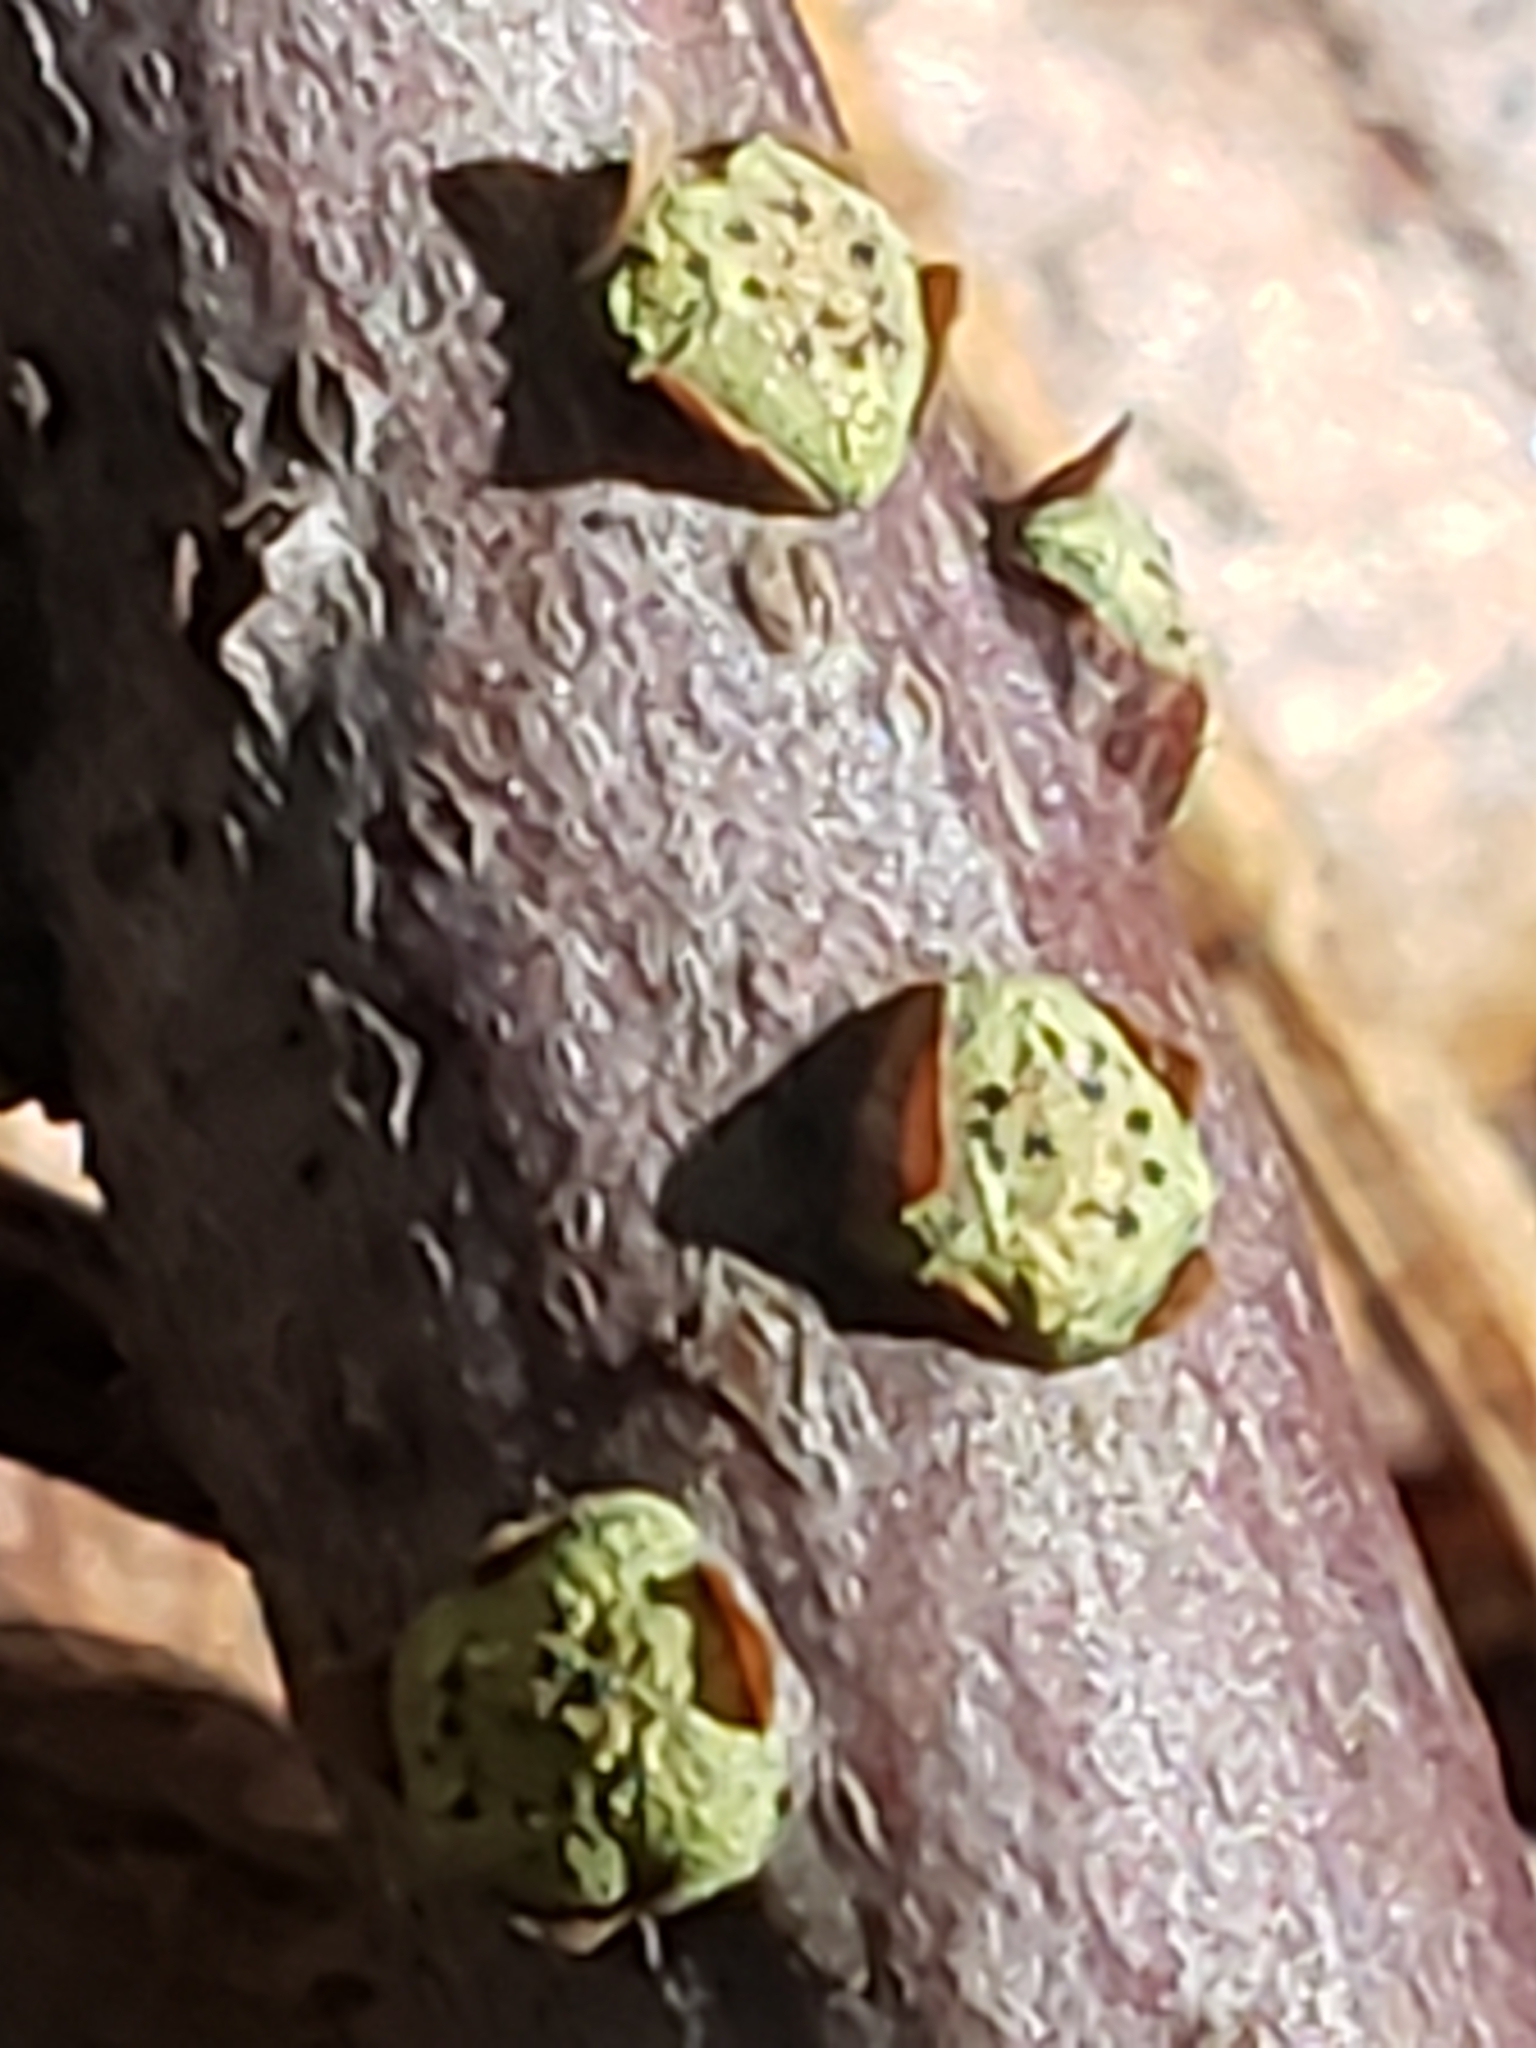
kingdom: Fungi
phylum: Ascomycota
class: Sordariomycetes
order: Xylariales
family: Diatrypaceae
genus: Diatrype
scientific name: Diatrype virescens
